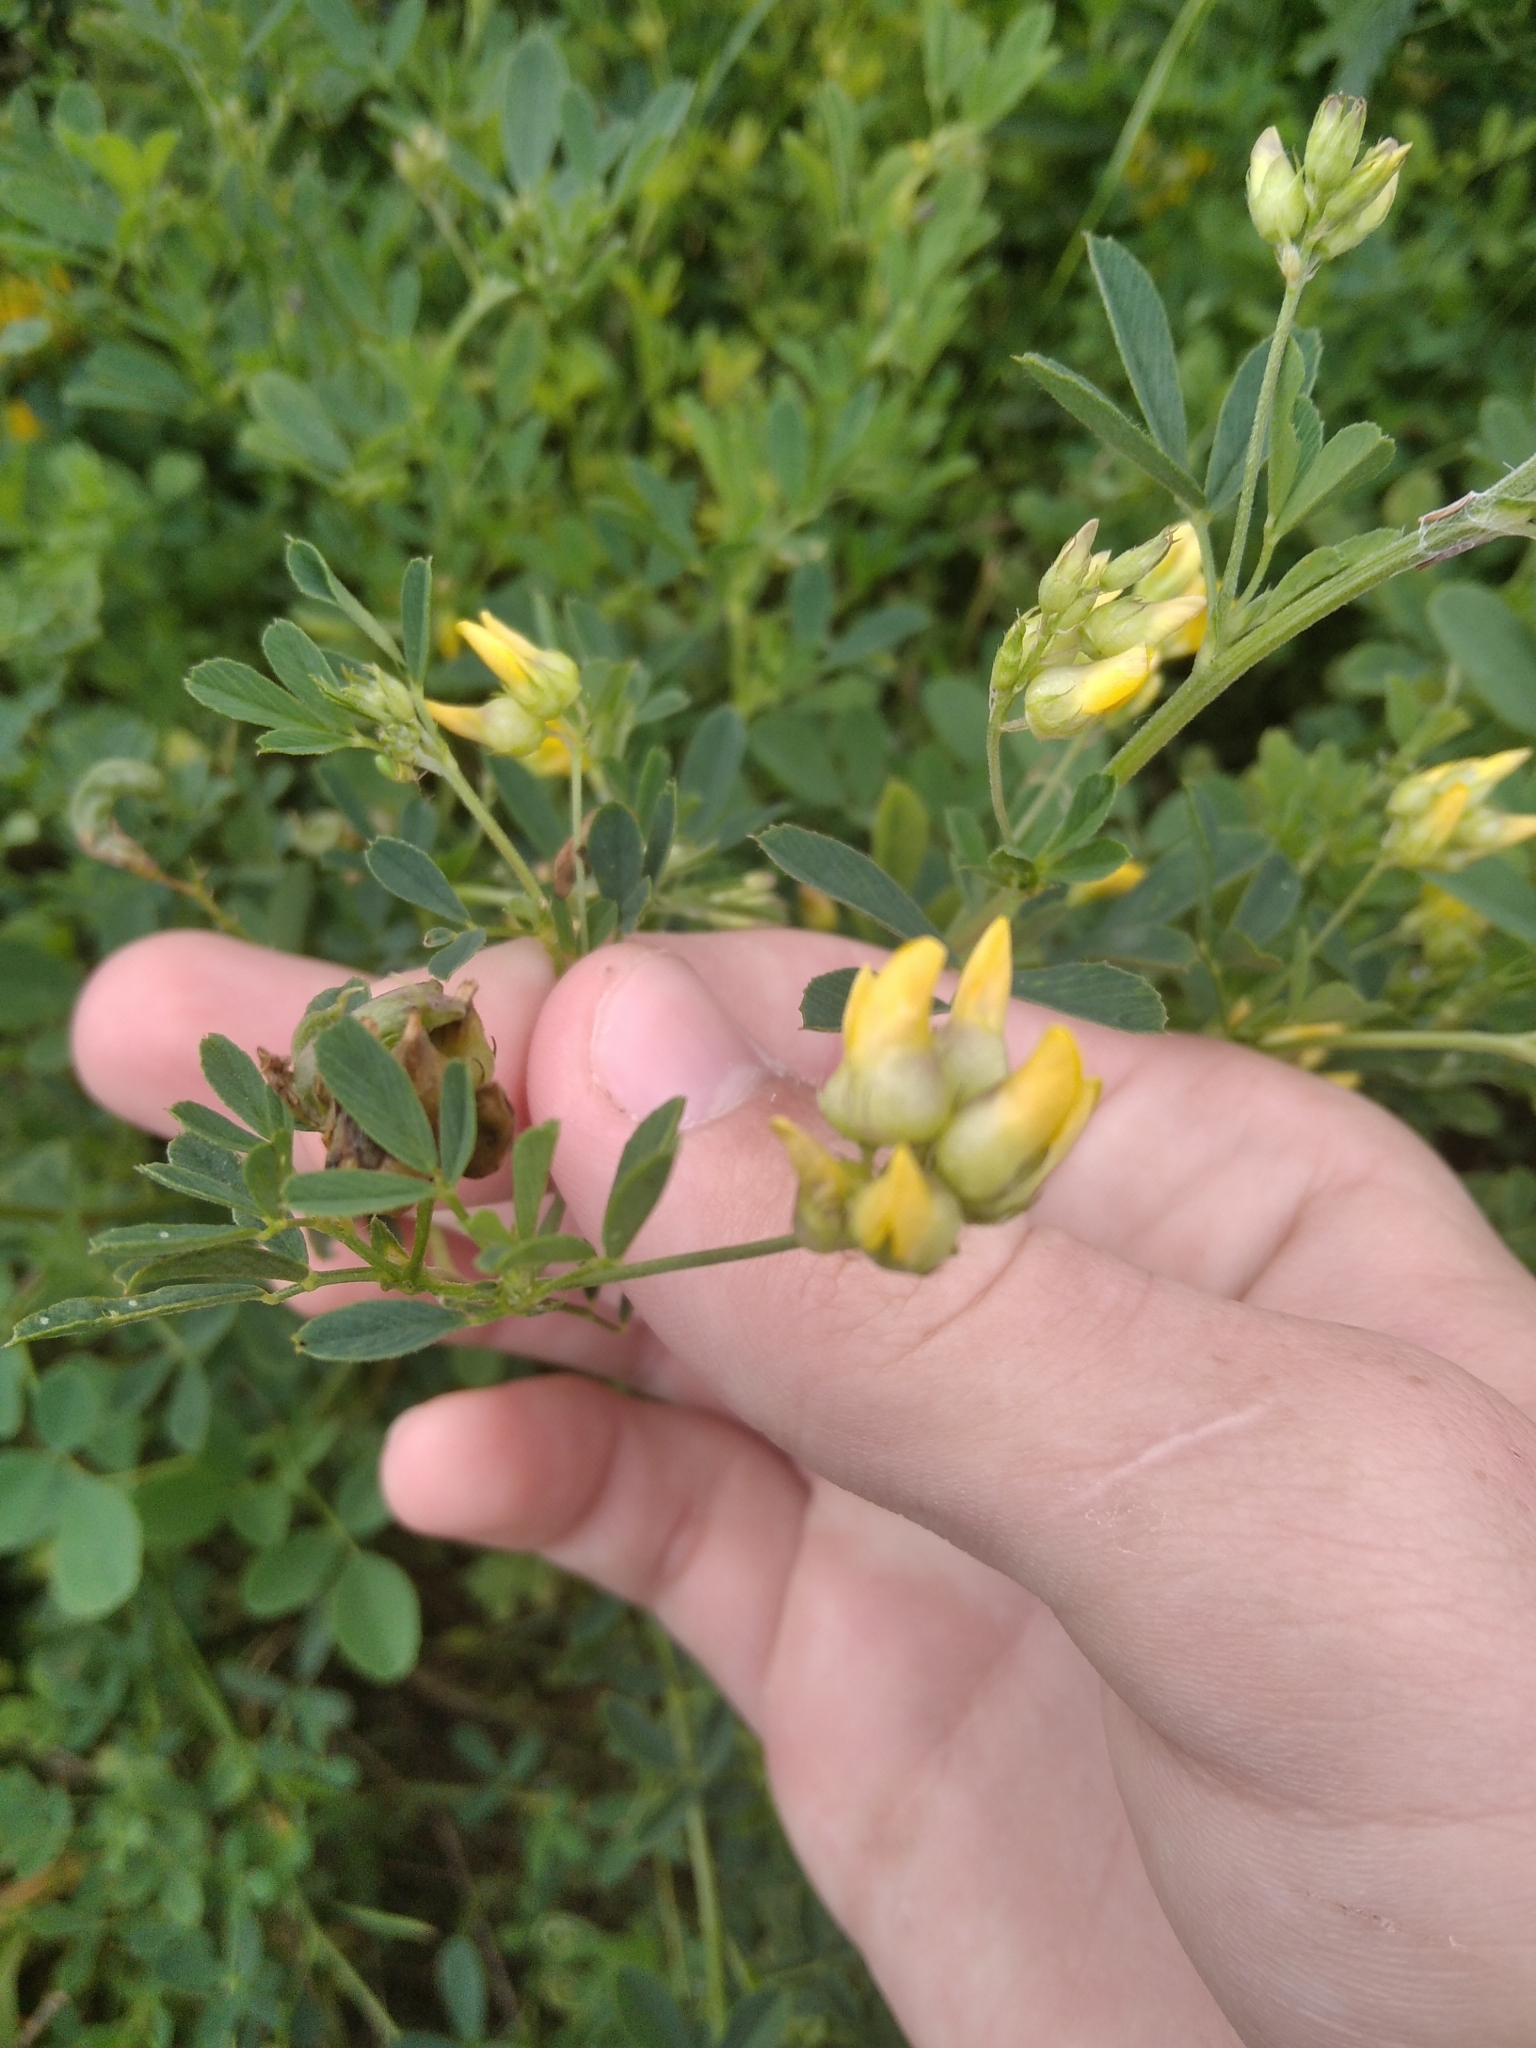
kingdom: Plantae
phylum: Tracheophyta
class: Magnoliopsida
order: Fabales
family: Fabaceae
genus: Medicago
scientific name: Medicago falcata
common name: Sickle medick
